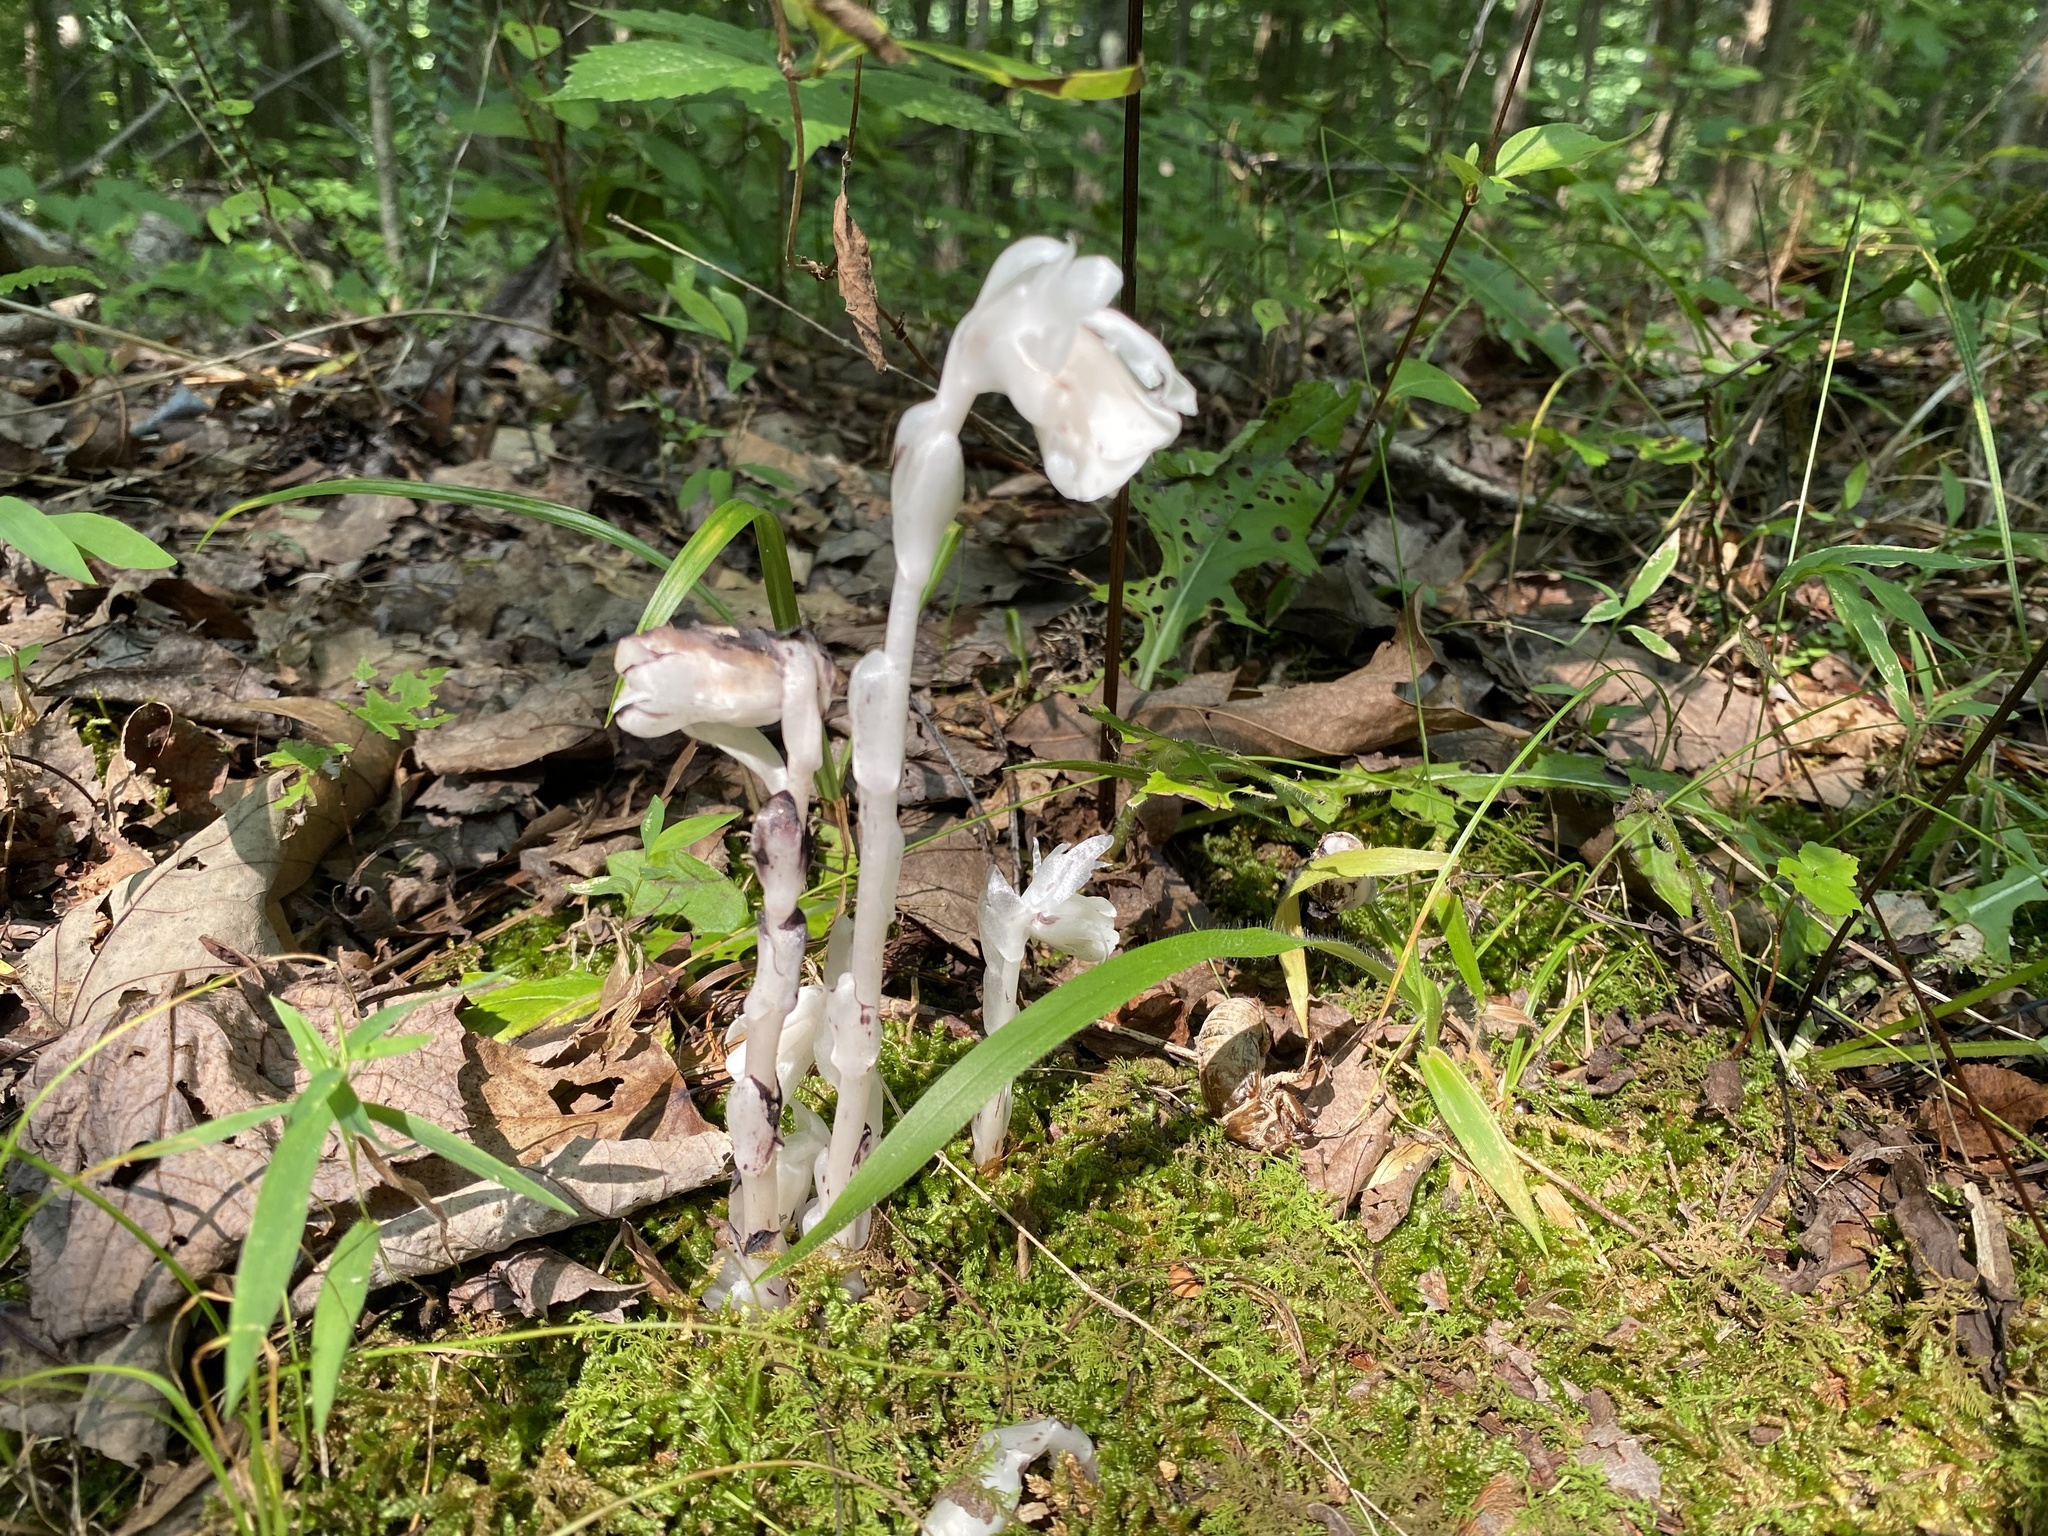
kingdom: Plantae
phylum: Tracheophyta
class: Magnoliopsida
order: Ericales
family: Ericaceae
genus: Monotropa
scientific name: Monotropa uniflora
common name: Convulsion root
